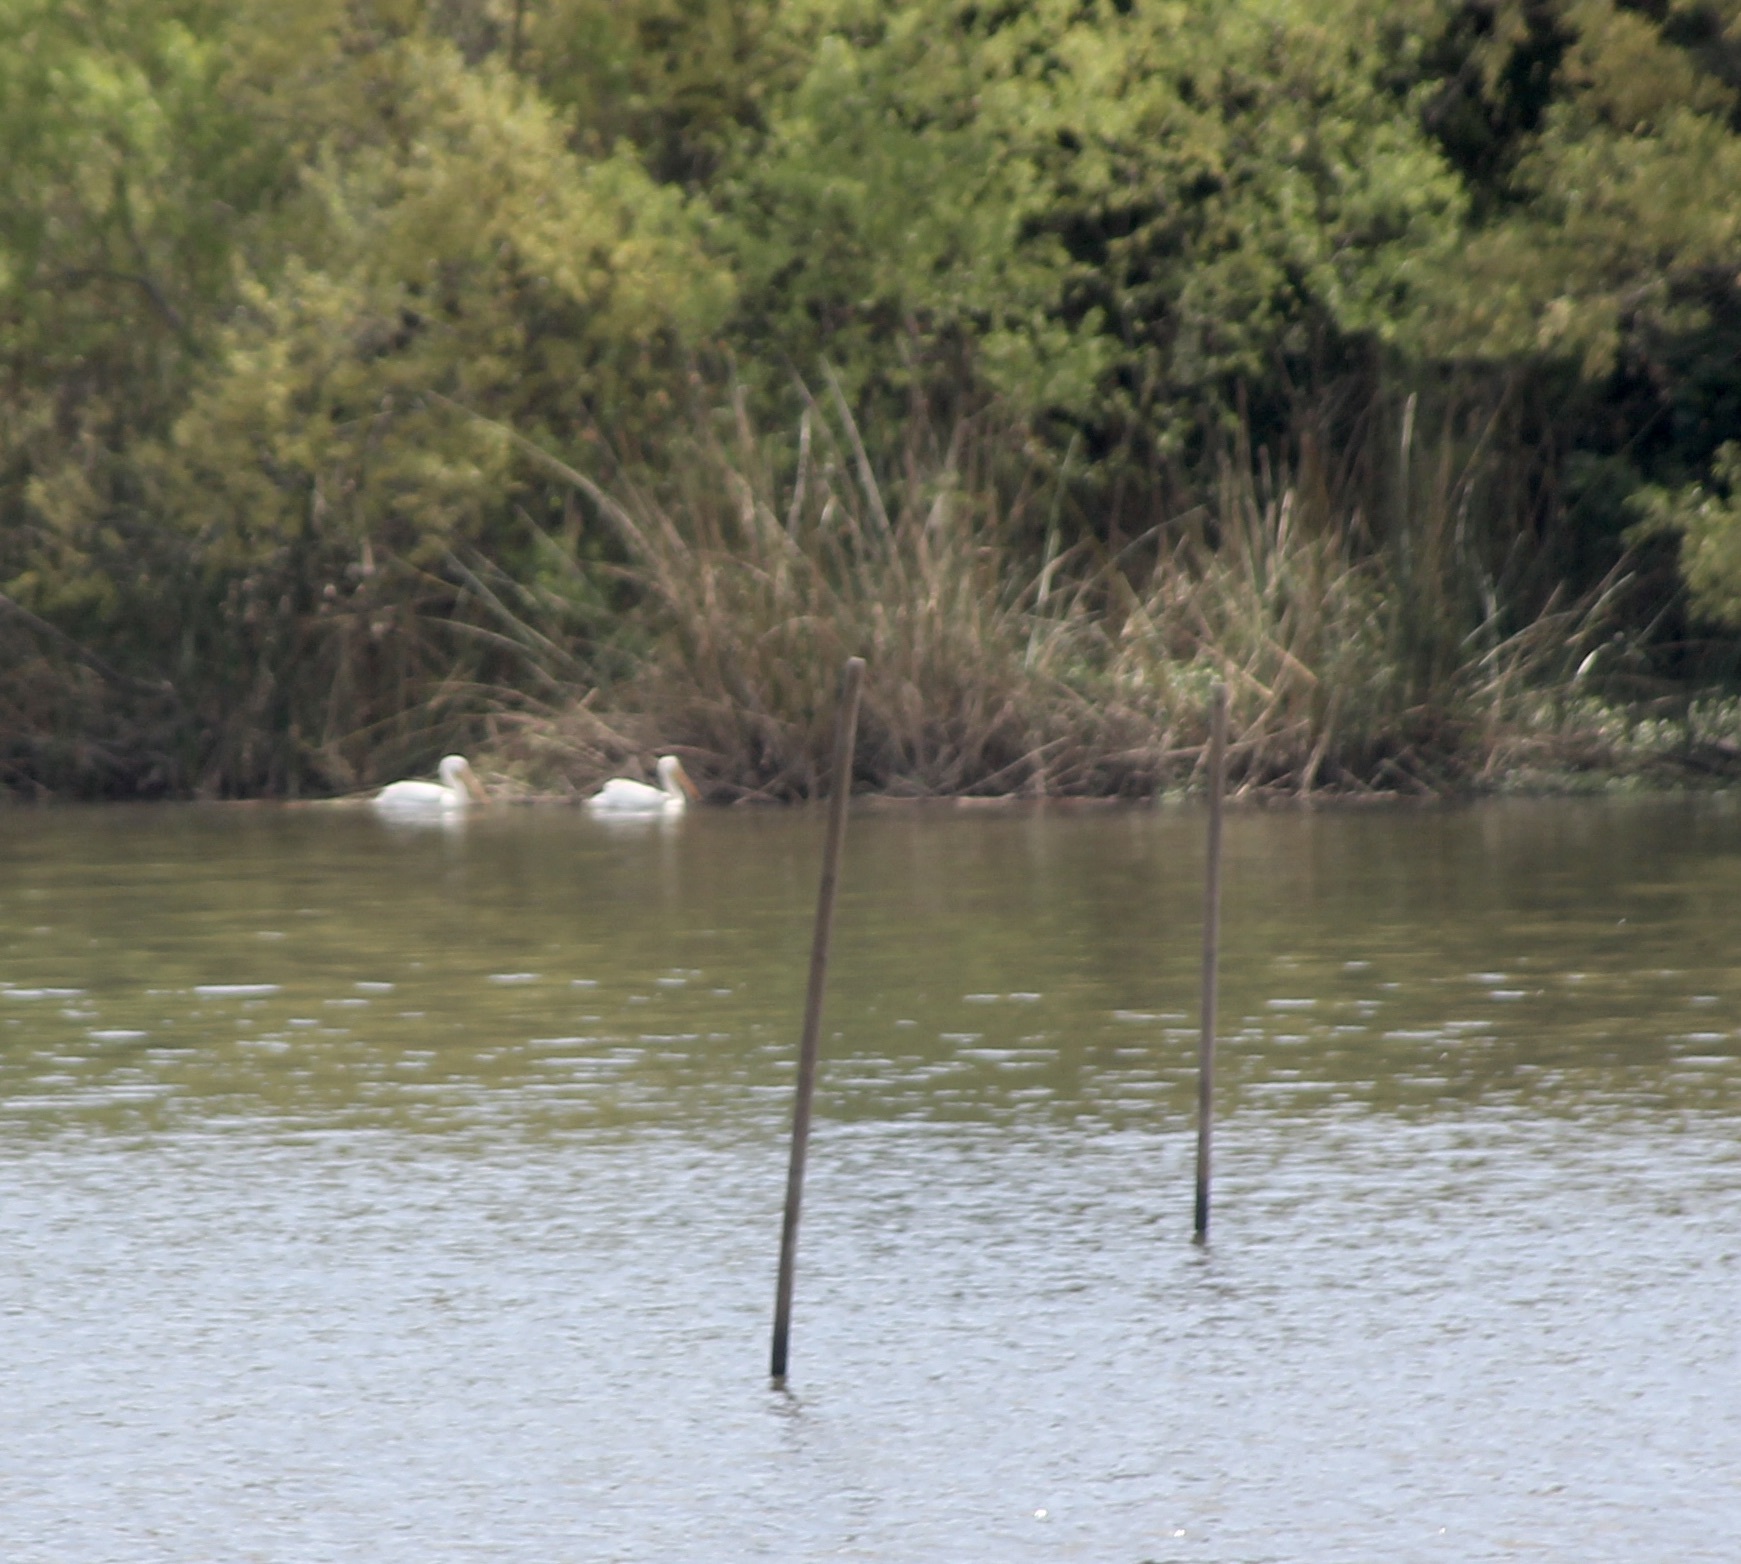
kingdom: Animalia
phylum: Chordata
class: Aves
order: Pelecaniformes
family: Pelecanidae
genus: Pelecanus
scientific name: Pelecanus erythrorhynchos
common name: American white pelican
